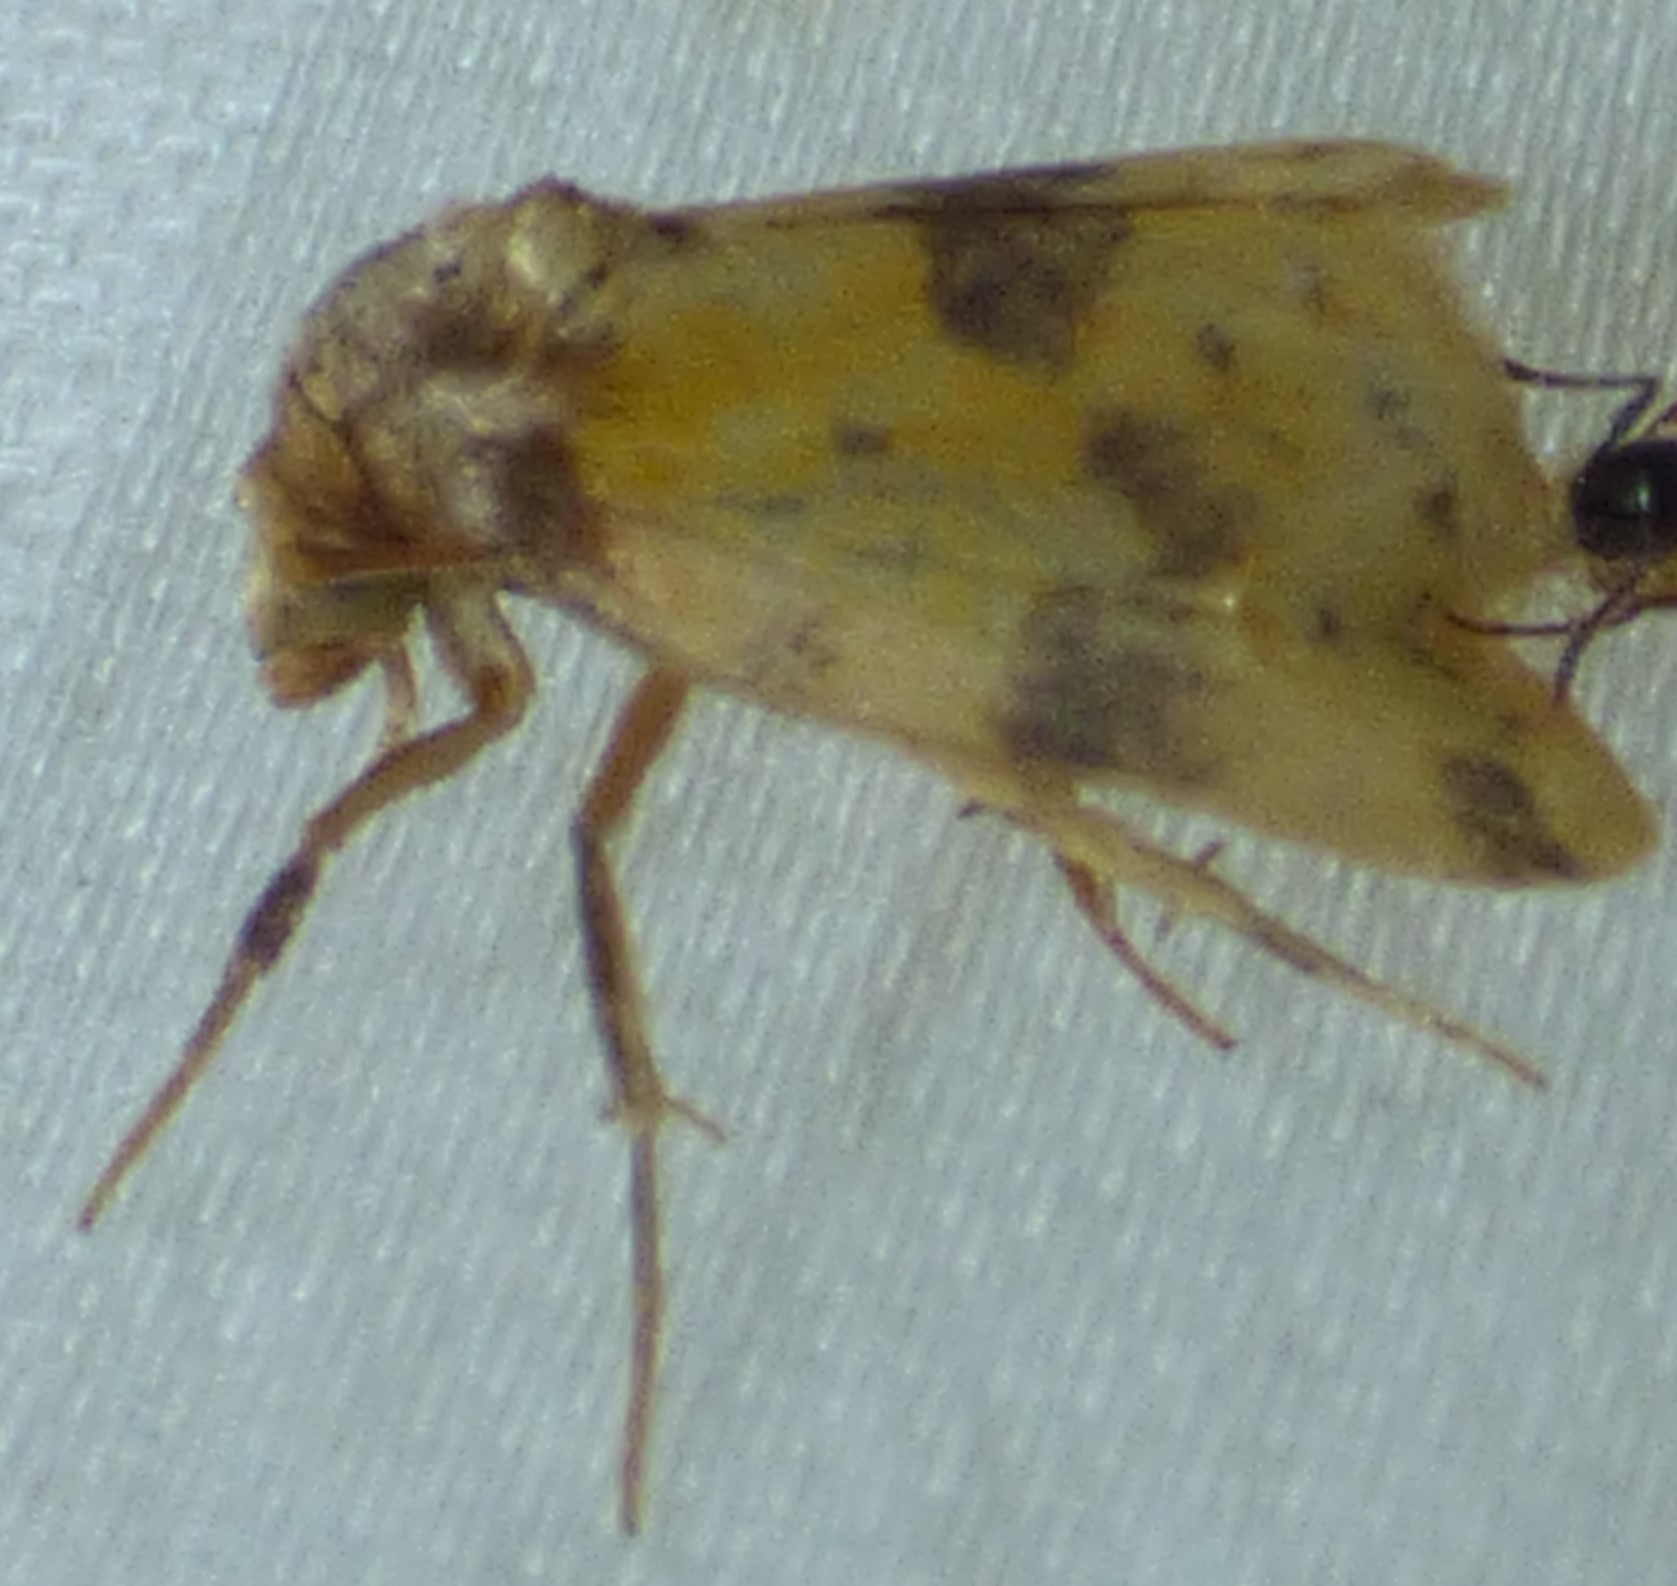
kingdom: Animalia
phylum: Arthropoda
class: Insecta
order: Lepidoptera
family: Noctuidae
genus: Azenia
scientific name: Azenia obtusa
